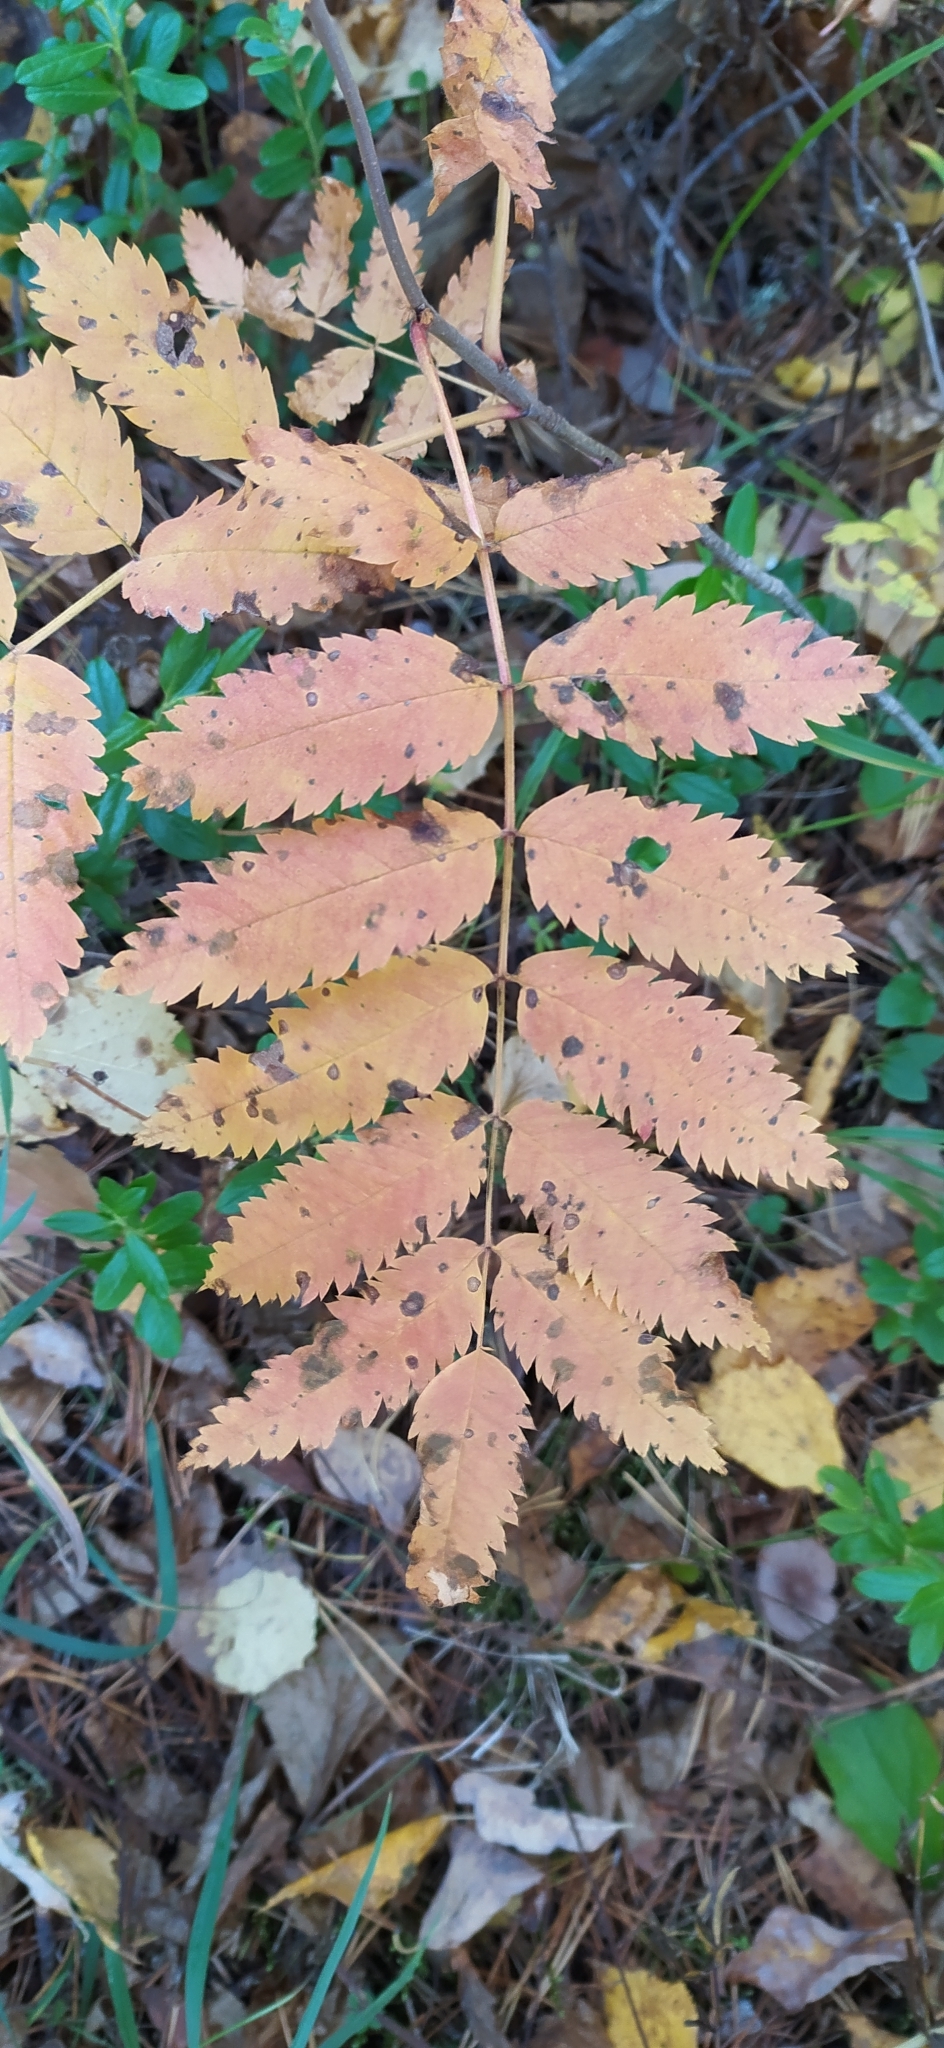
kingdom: Plantae
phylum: Tracheophyta
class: Magnoliopsida
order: Rosales
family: Rosaceae
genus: Sorbus
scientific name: Sorbus aucuparia
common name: Rowan
